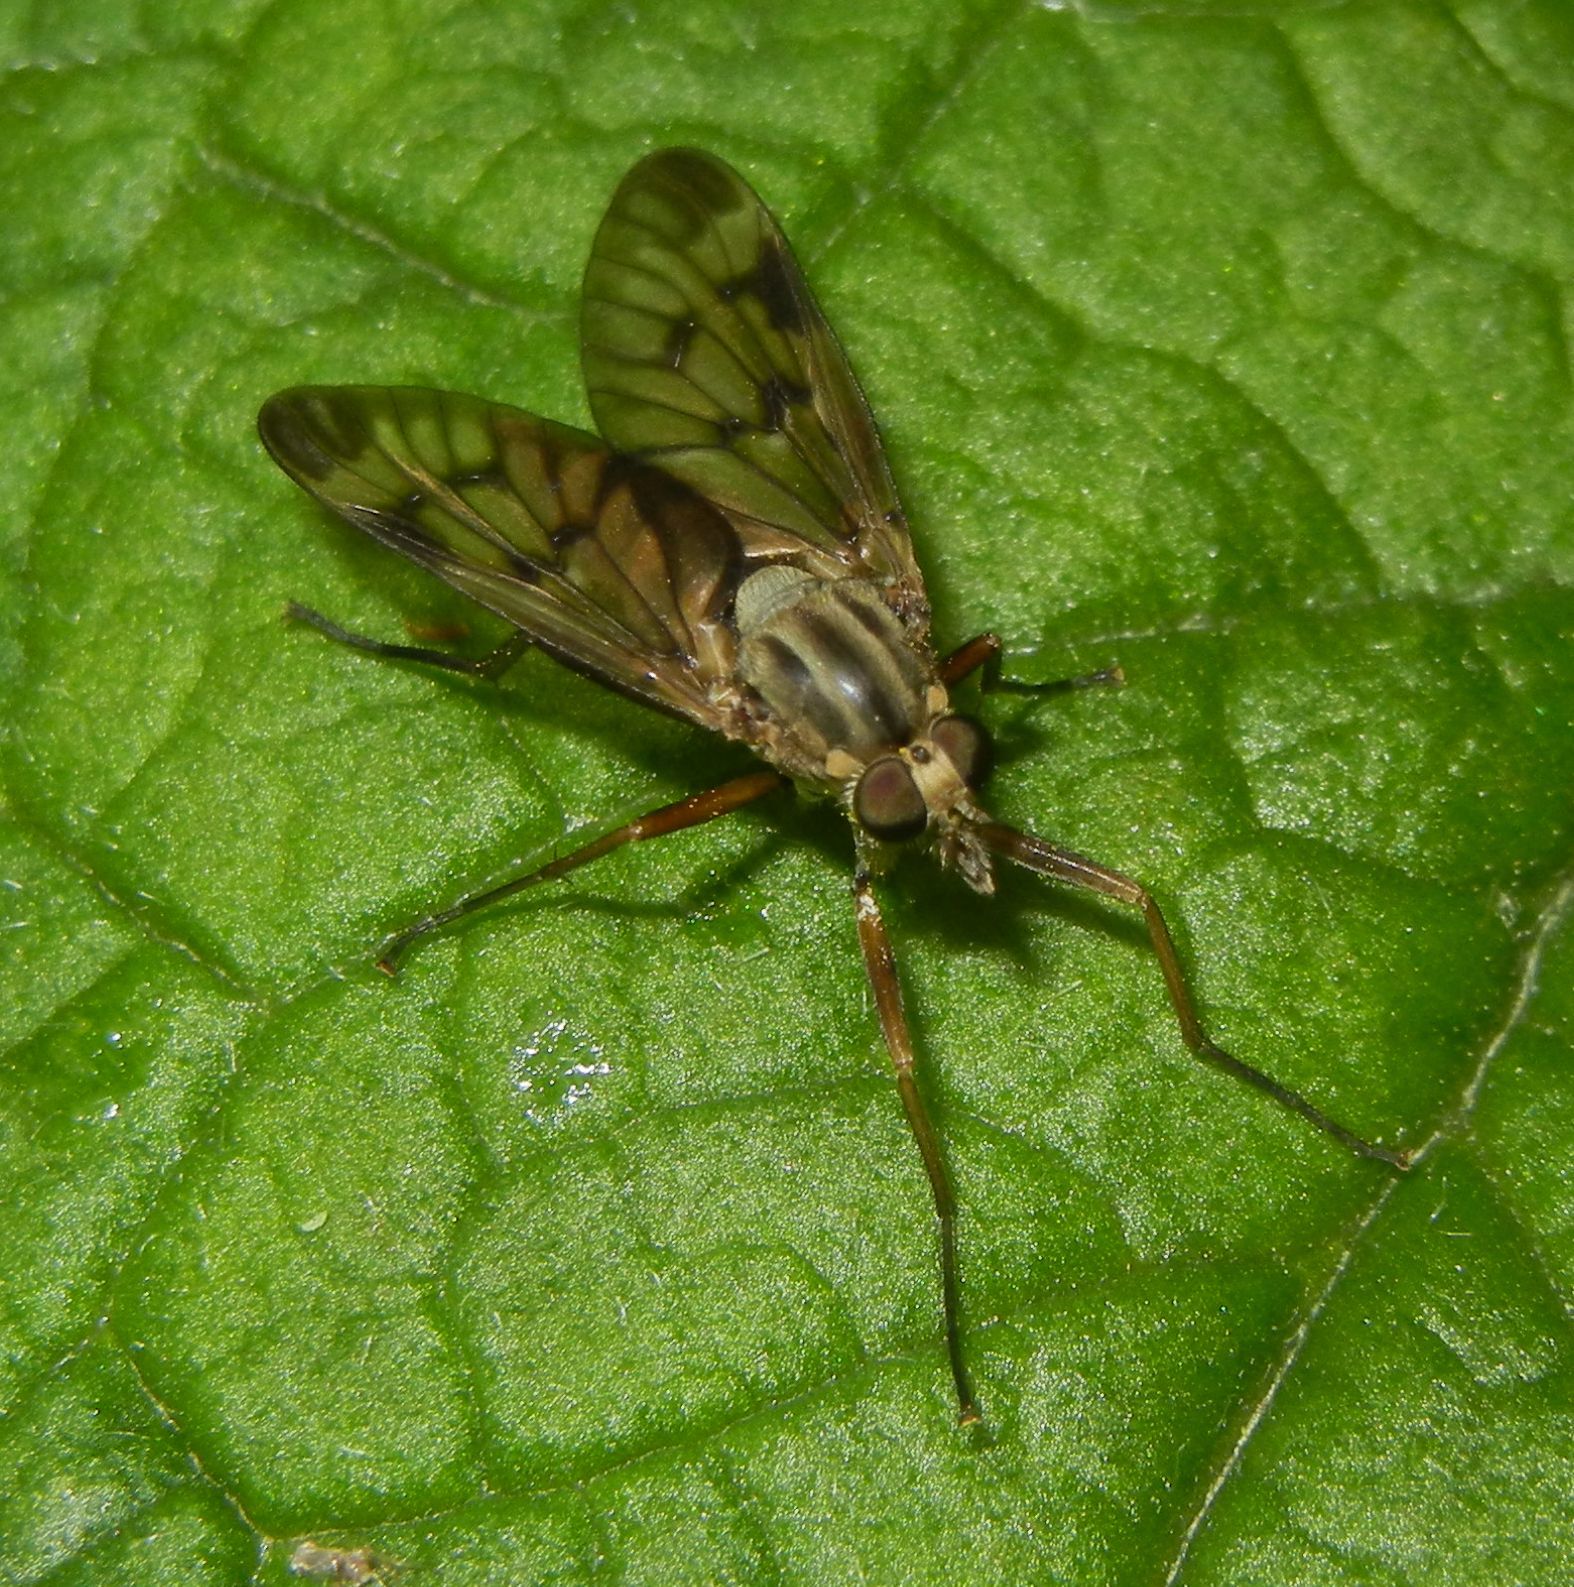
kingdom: Animalia
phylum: Arthropoda
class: Insecta
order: Diptera
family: Rhagionidae
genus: Rhagio
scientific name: Rhagio scolopacea
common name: Downlooker snipefly
